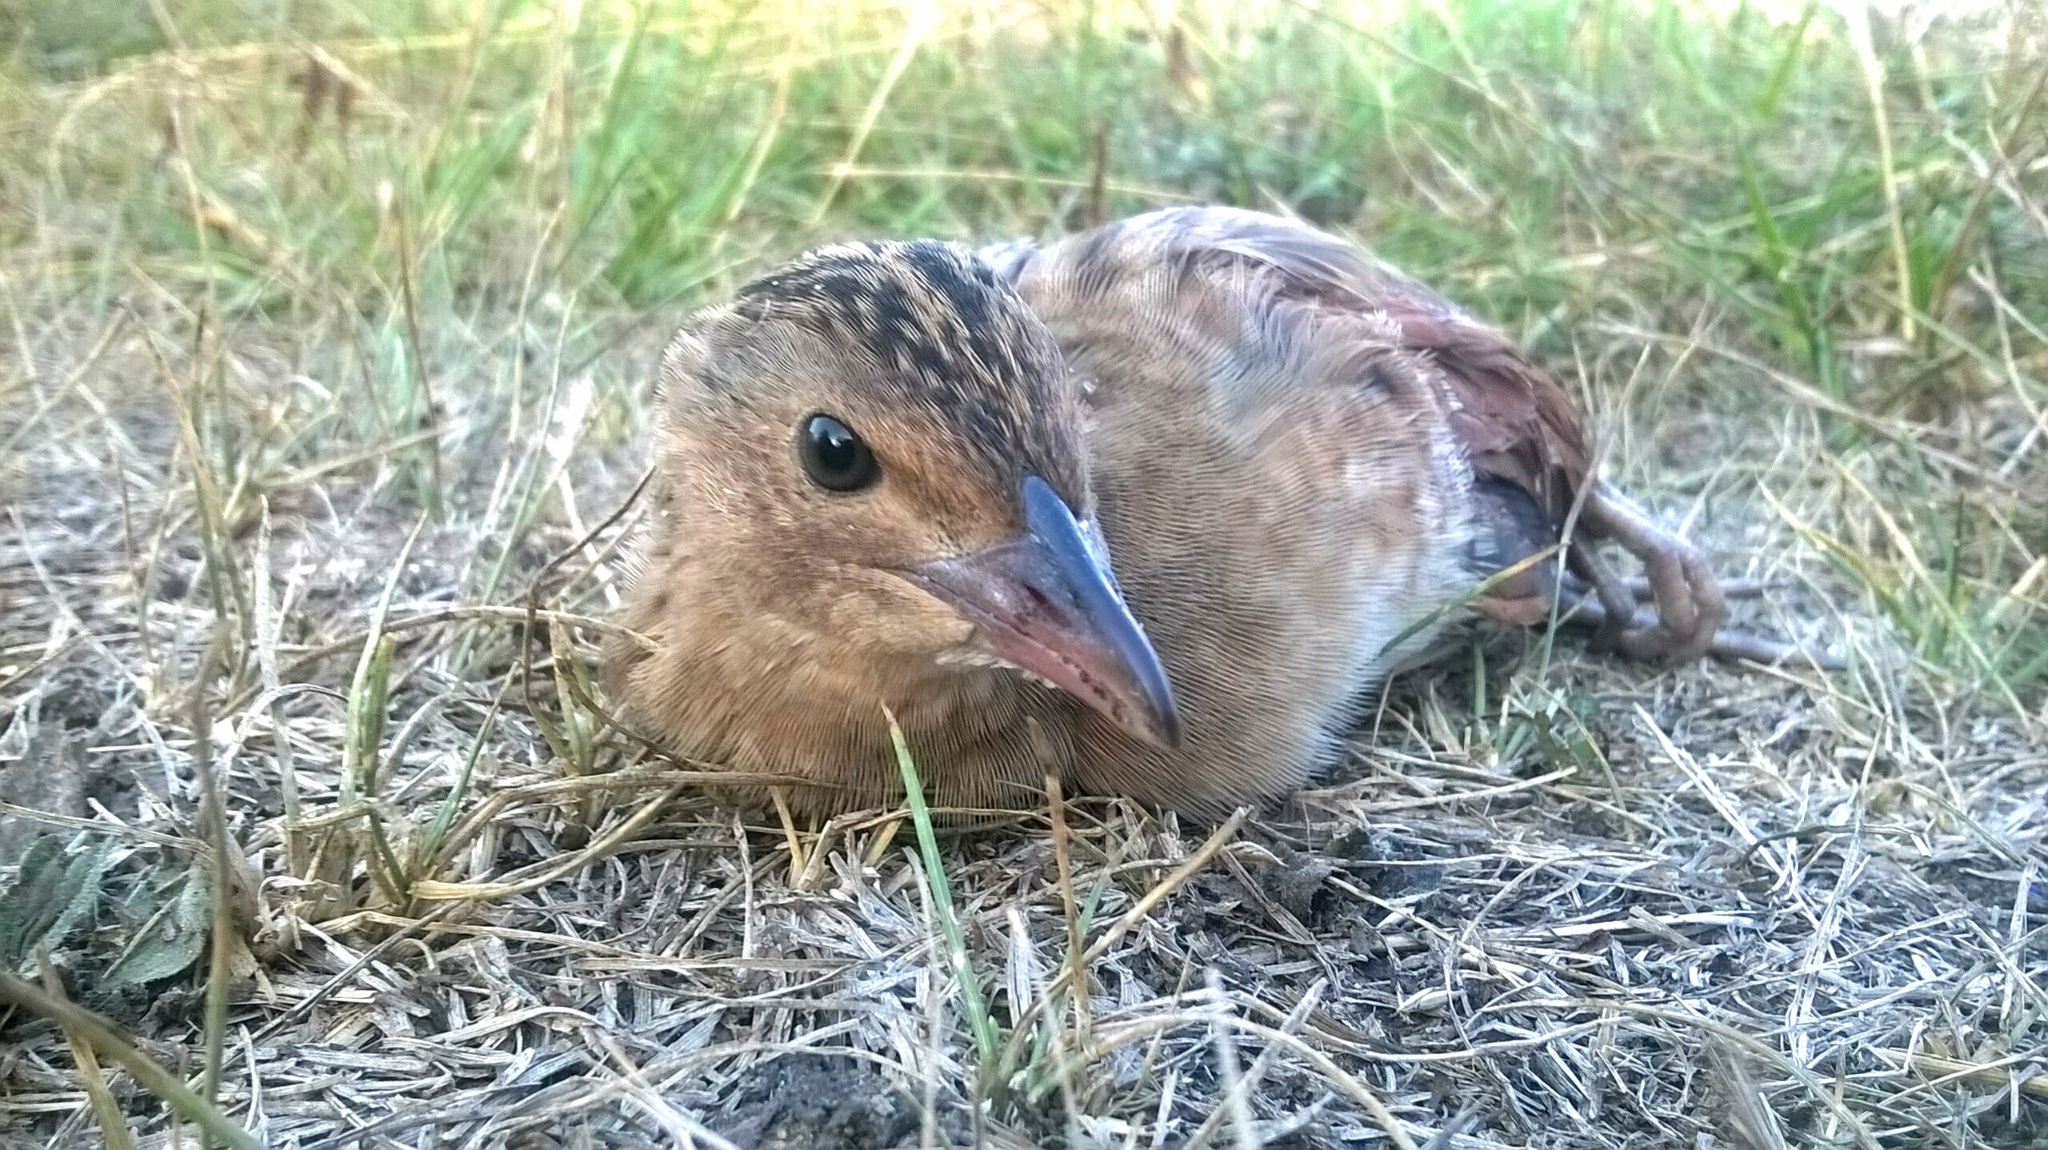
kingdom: Animalia
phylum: Chordata
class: Aves
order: Gruiformes
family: Rallidae
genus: Crex
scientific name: Crex crex
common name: Corn crake
